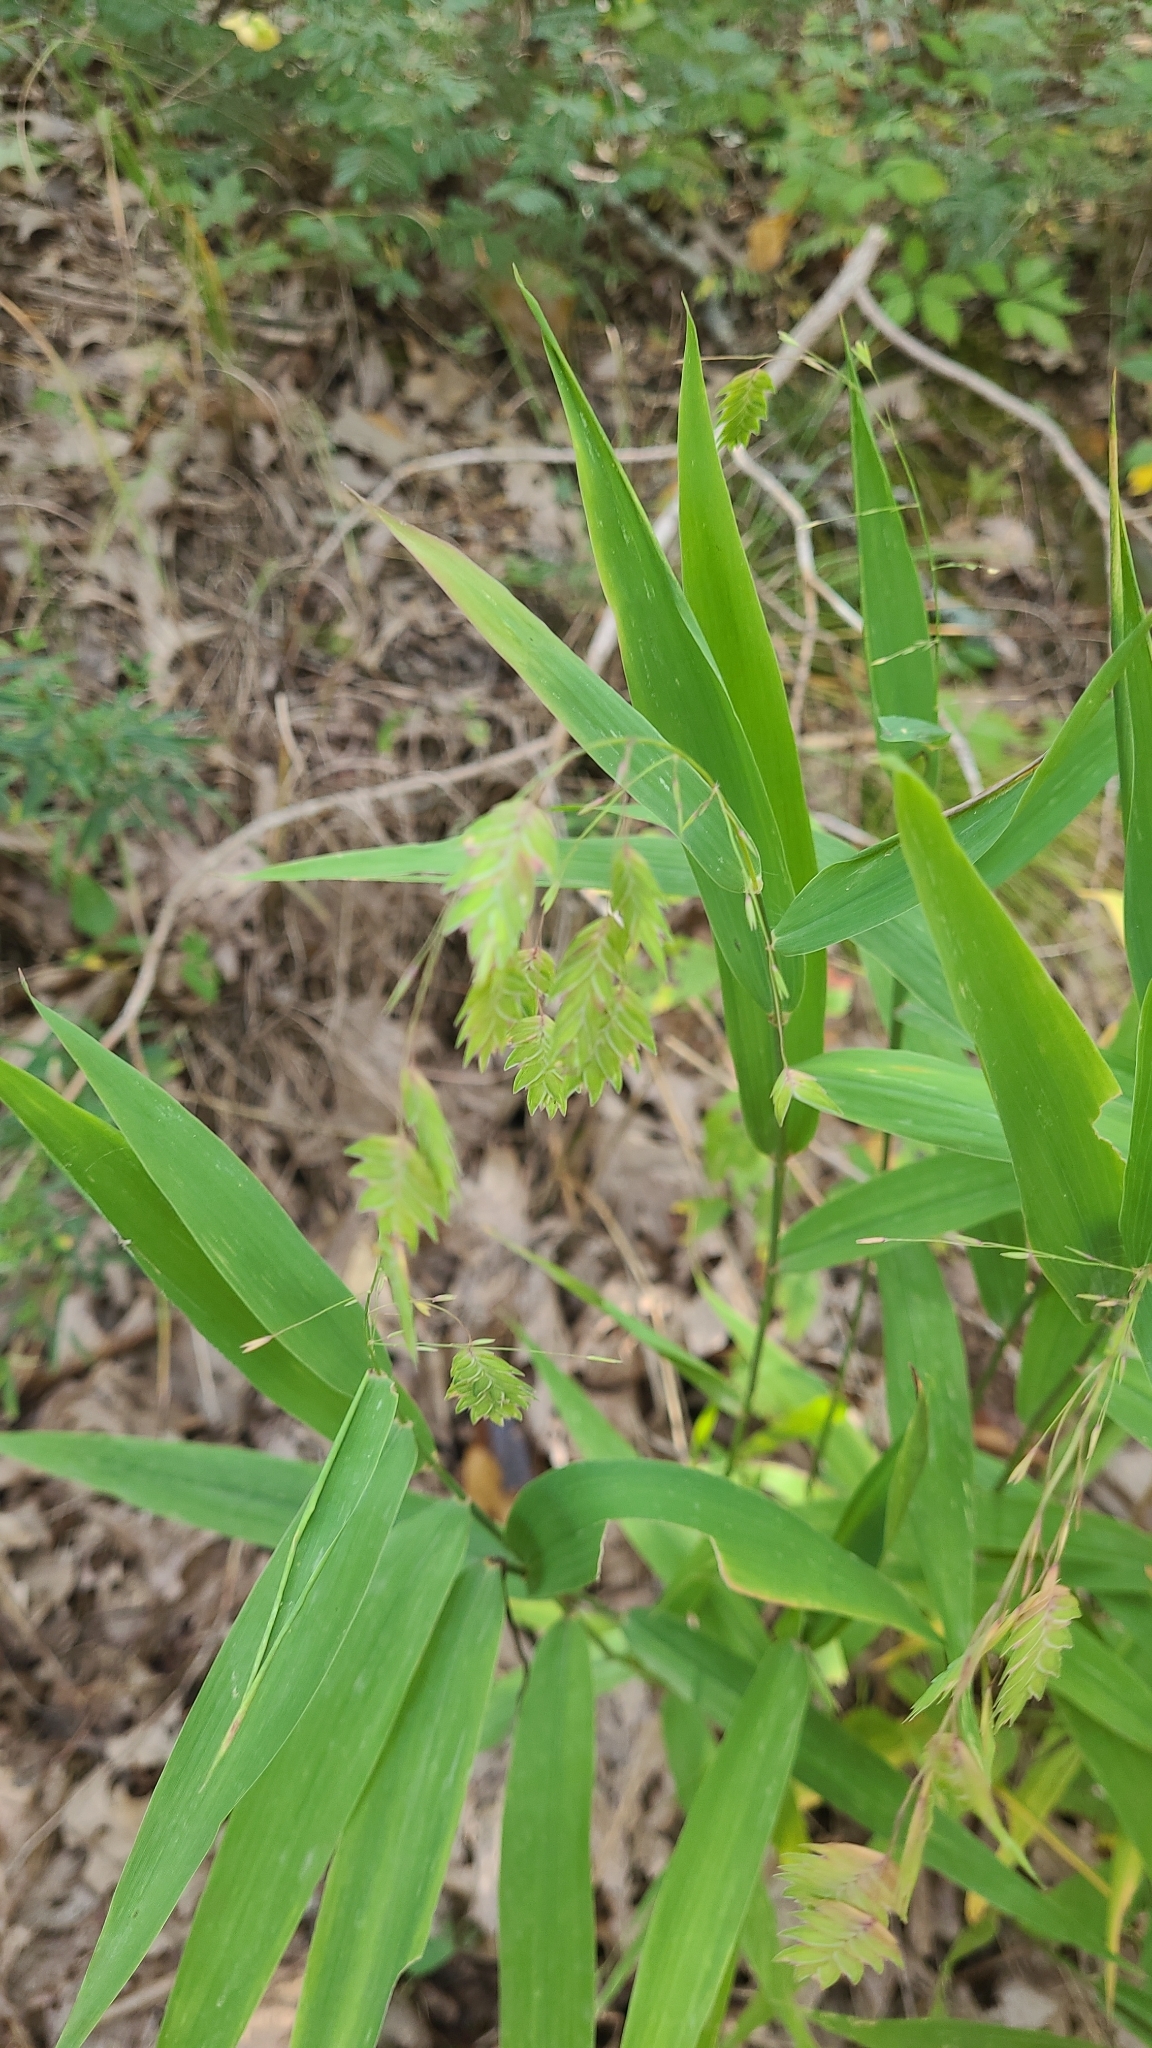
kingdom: Plantae
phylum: Tracheophyta
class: Liliopsida
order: Poales
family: Poaceae
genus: Chasmanthium
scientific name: Chasmanthium latifolium
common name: Broad-leaved chasmanthium
